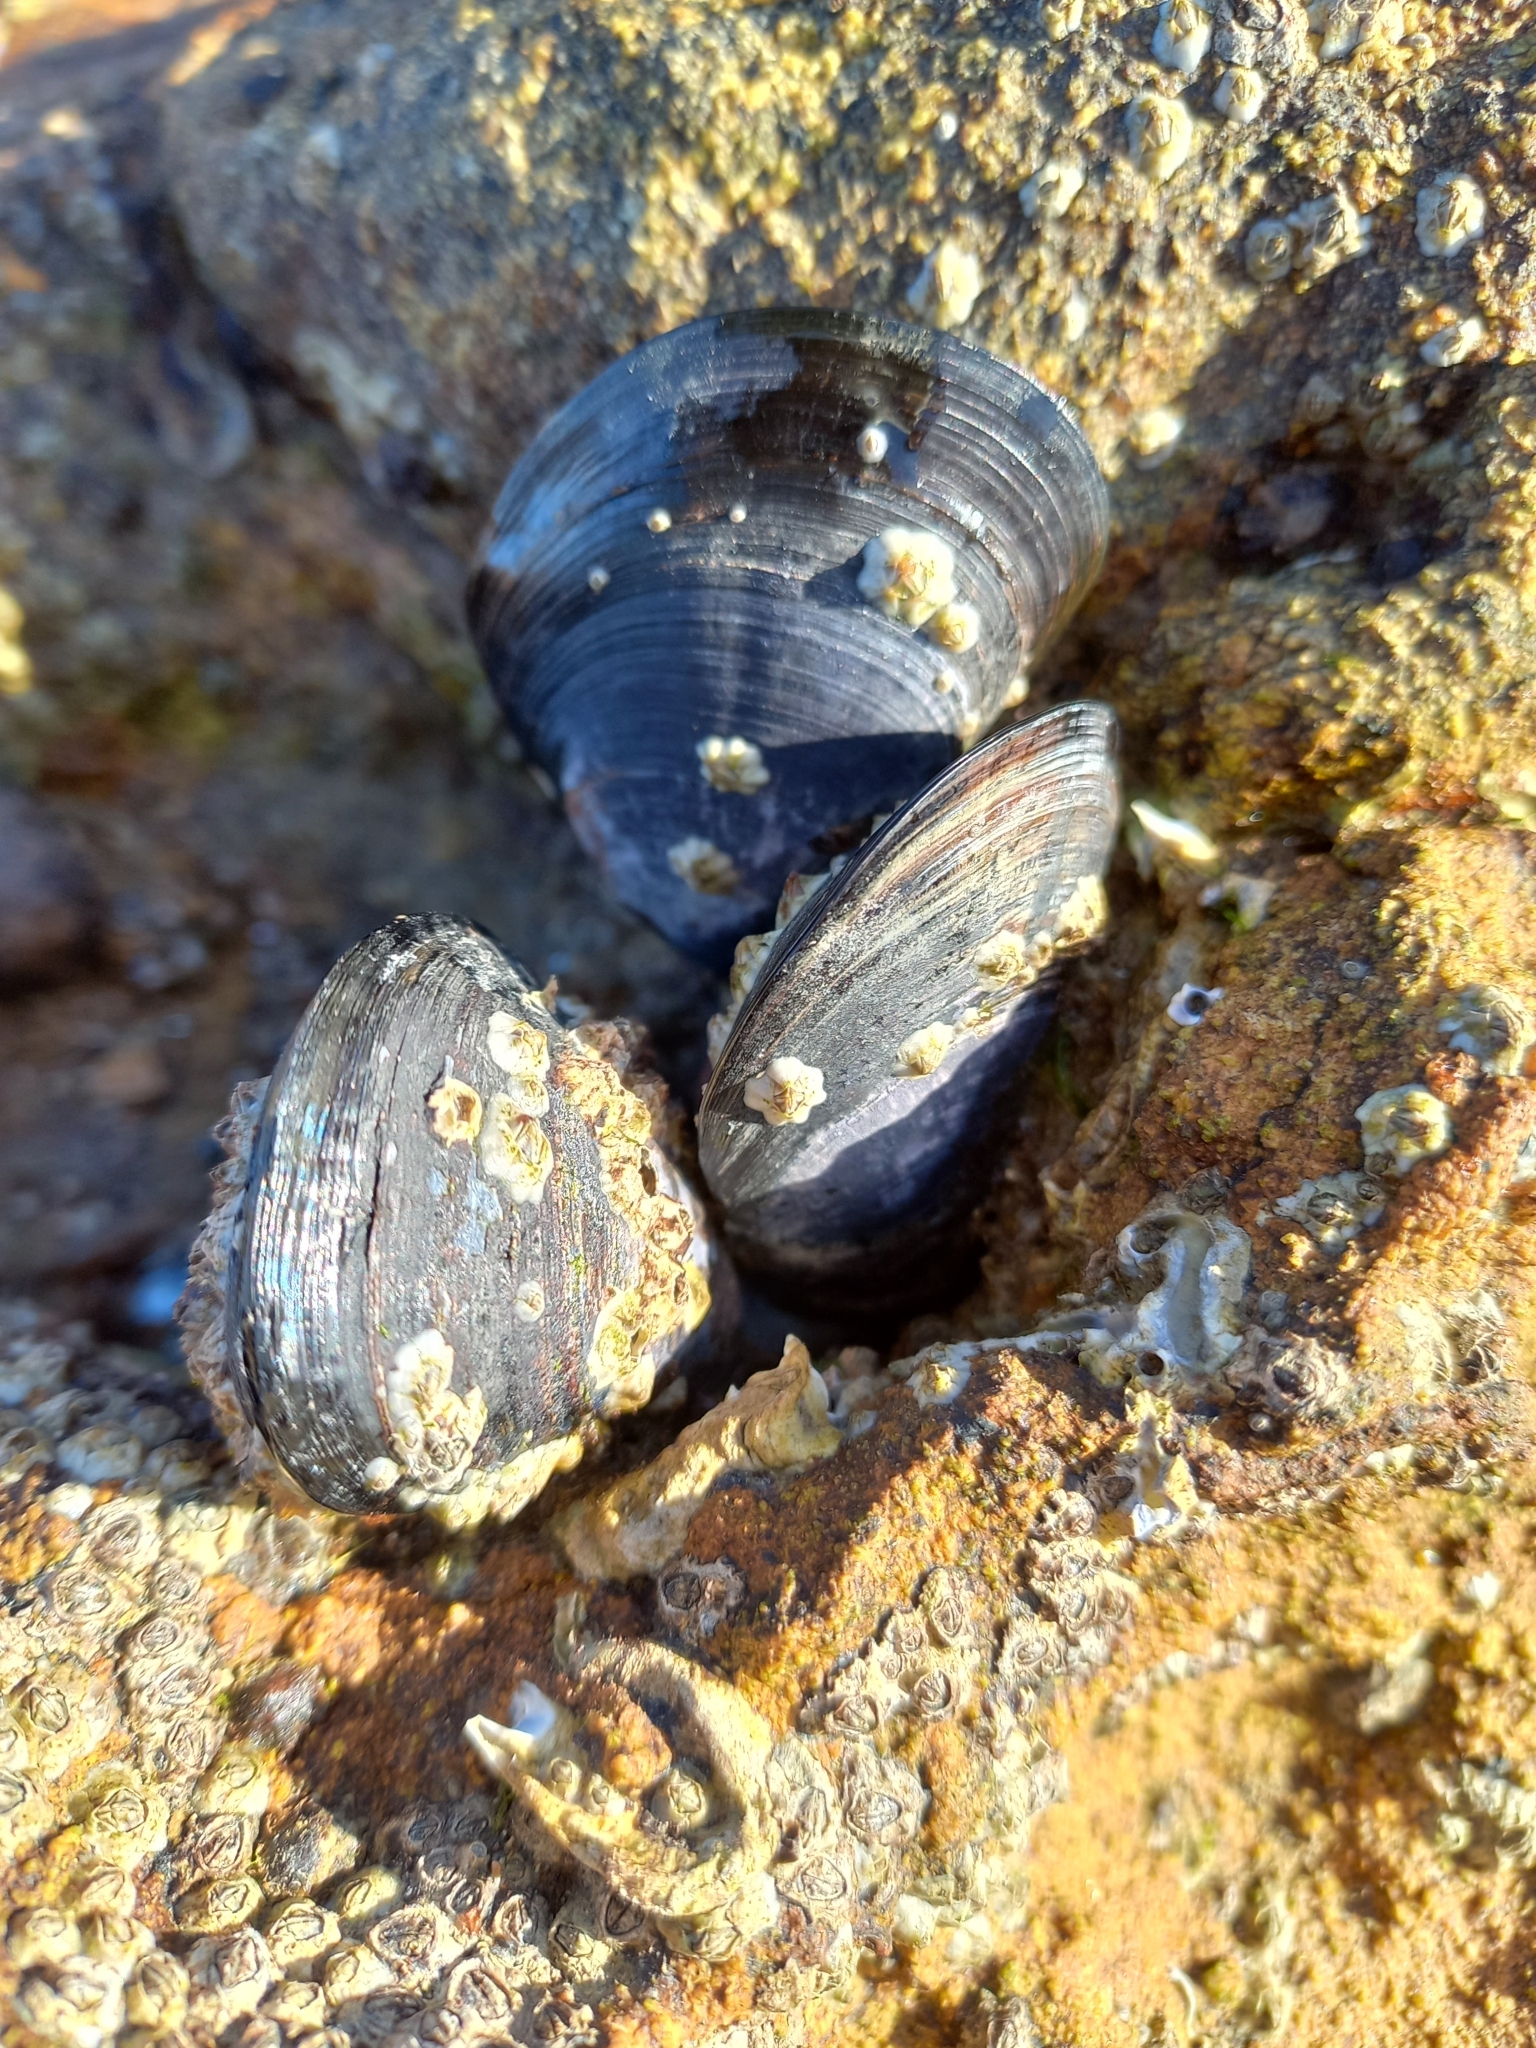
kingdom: Animalia
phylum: Mollusca
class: Bivalvia
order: Mytilida
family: Mytilidae
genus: Mytilus
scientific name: Mytilus planulatus
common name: Australian mussel
